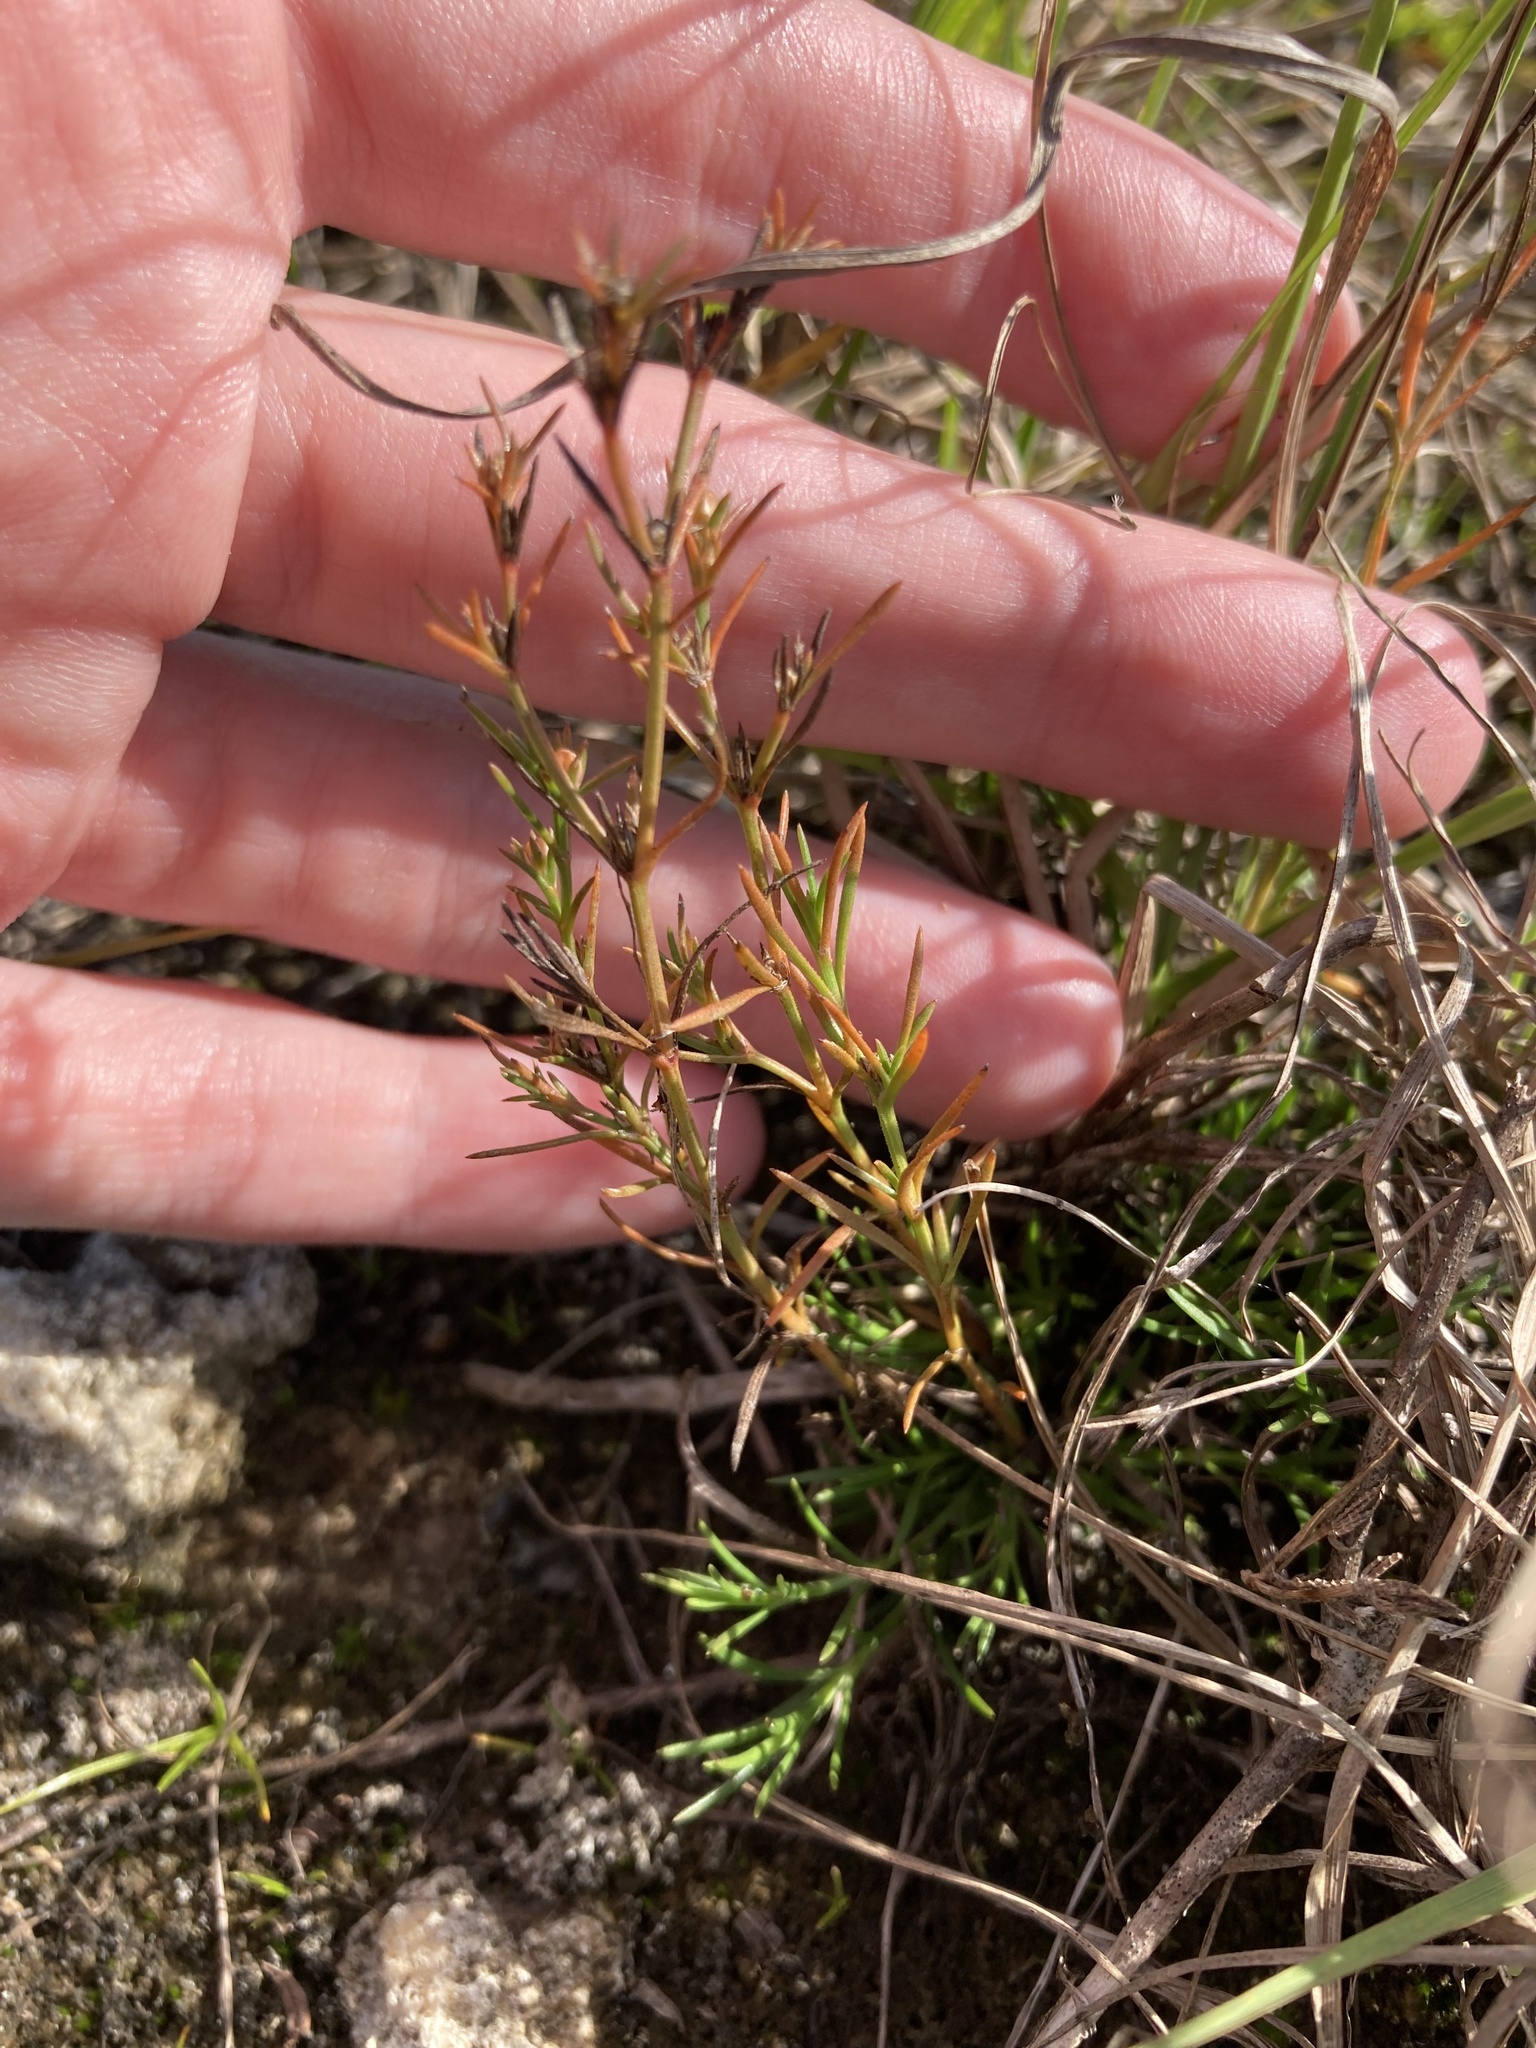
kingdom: Plantae
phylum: Tracheophyta
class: Magnoliopsida
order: Lamiales
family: Tetrachondraceae
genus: Polypremum
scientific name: Polypremum procumbens
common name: Juniper-leaf
